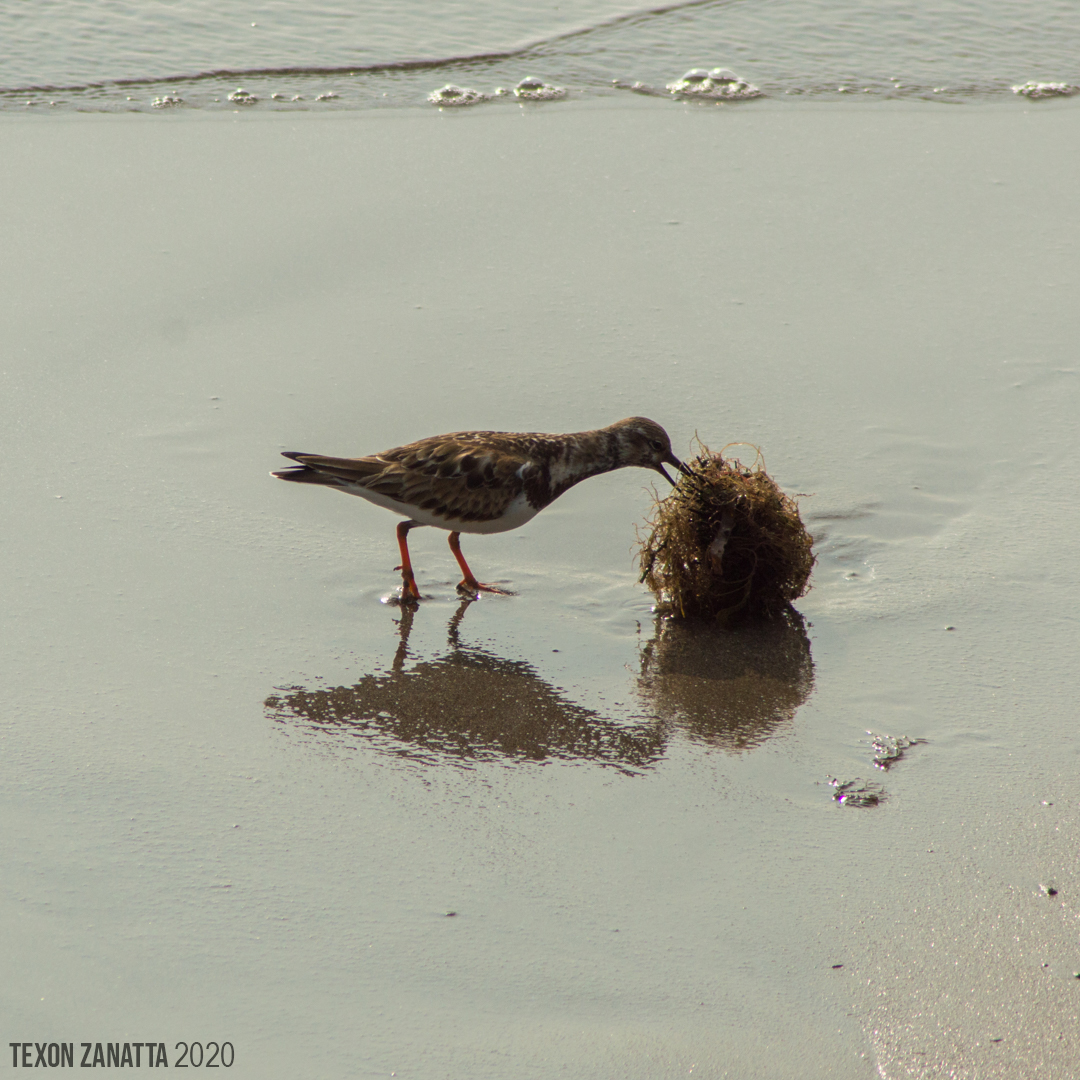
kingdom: Animalia
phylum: Chordata
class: Aves
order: Charadriiformes
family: Scolopacidae
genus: Arenaria
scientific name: Arenaria interpres
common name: Ruddy turnstone
